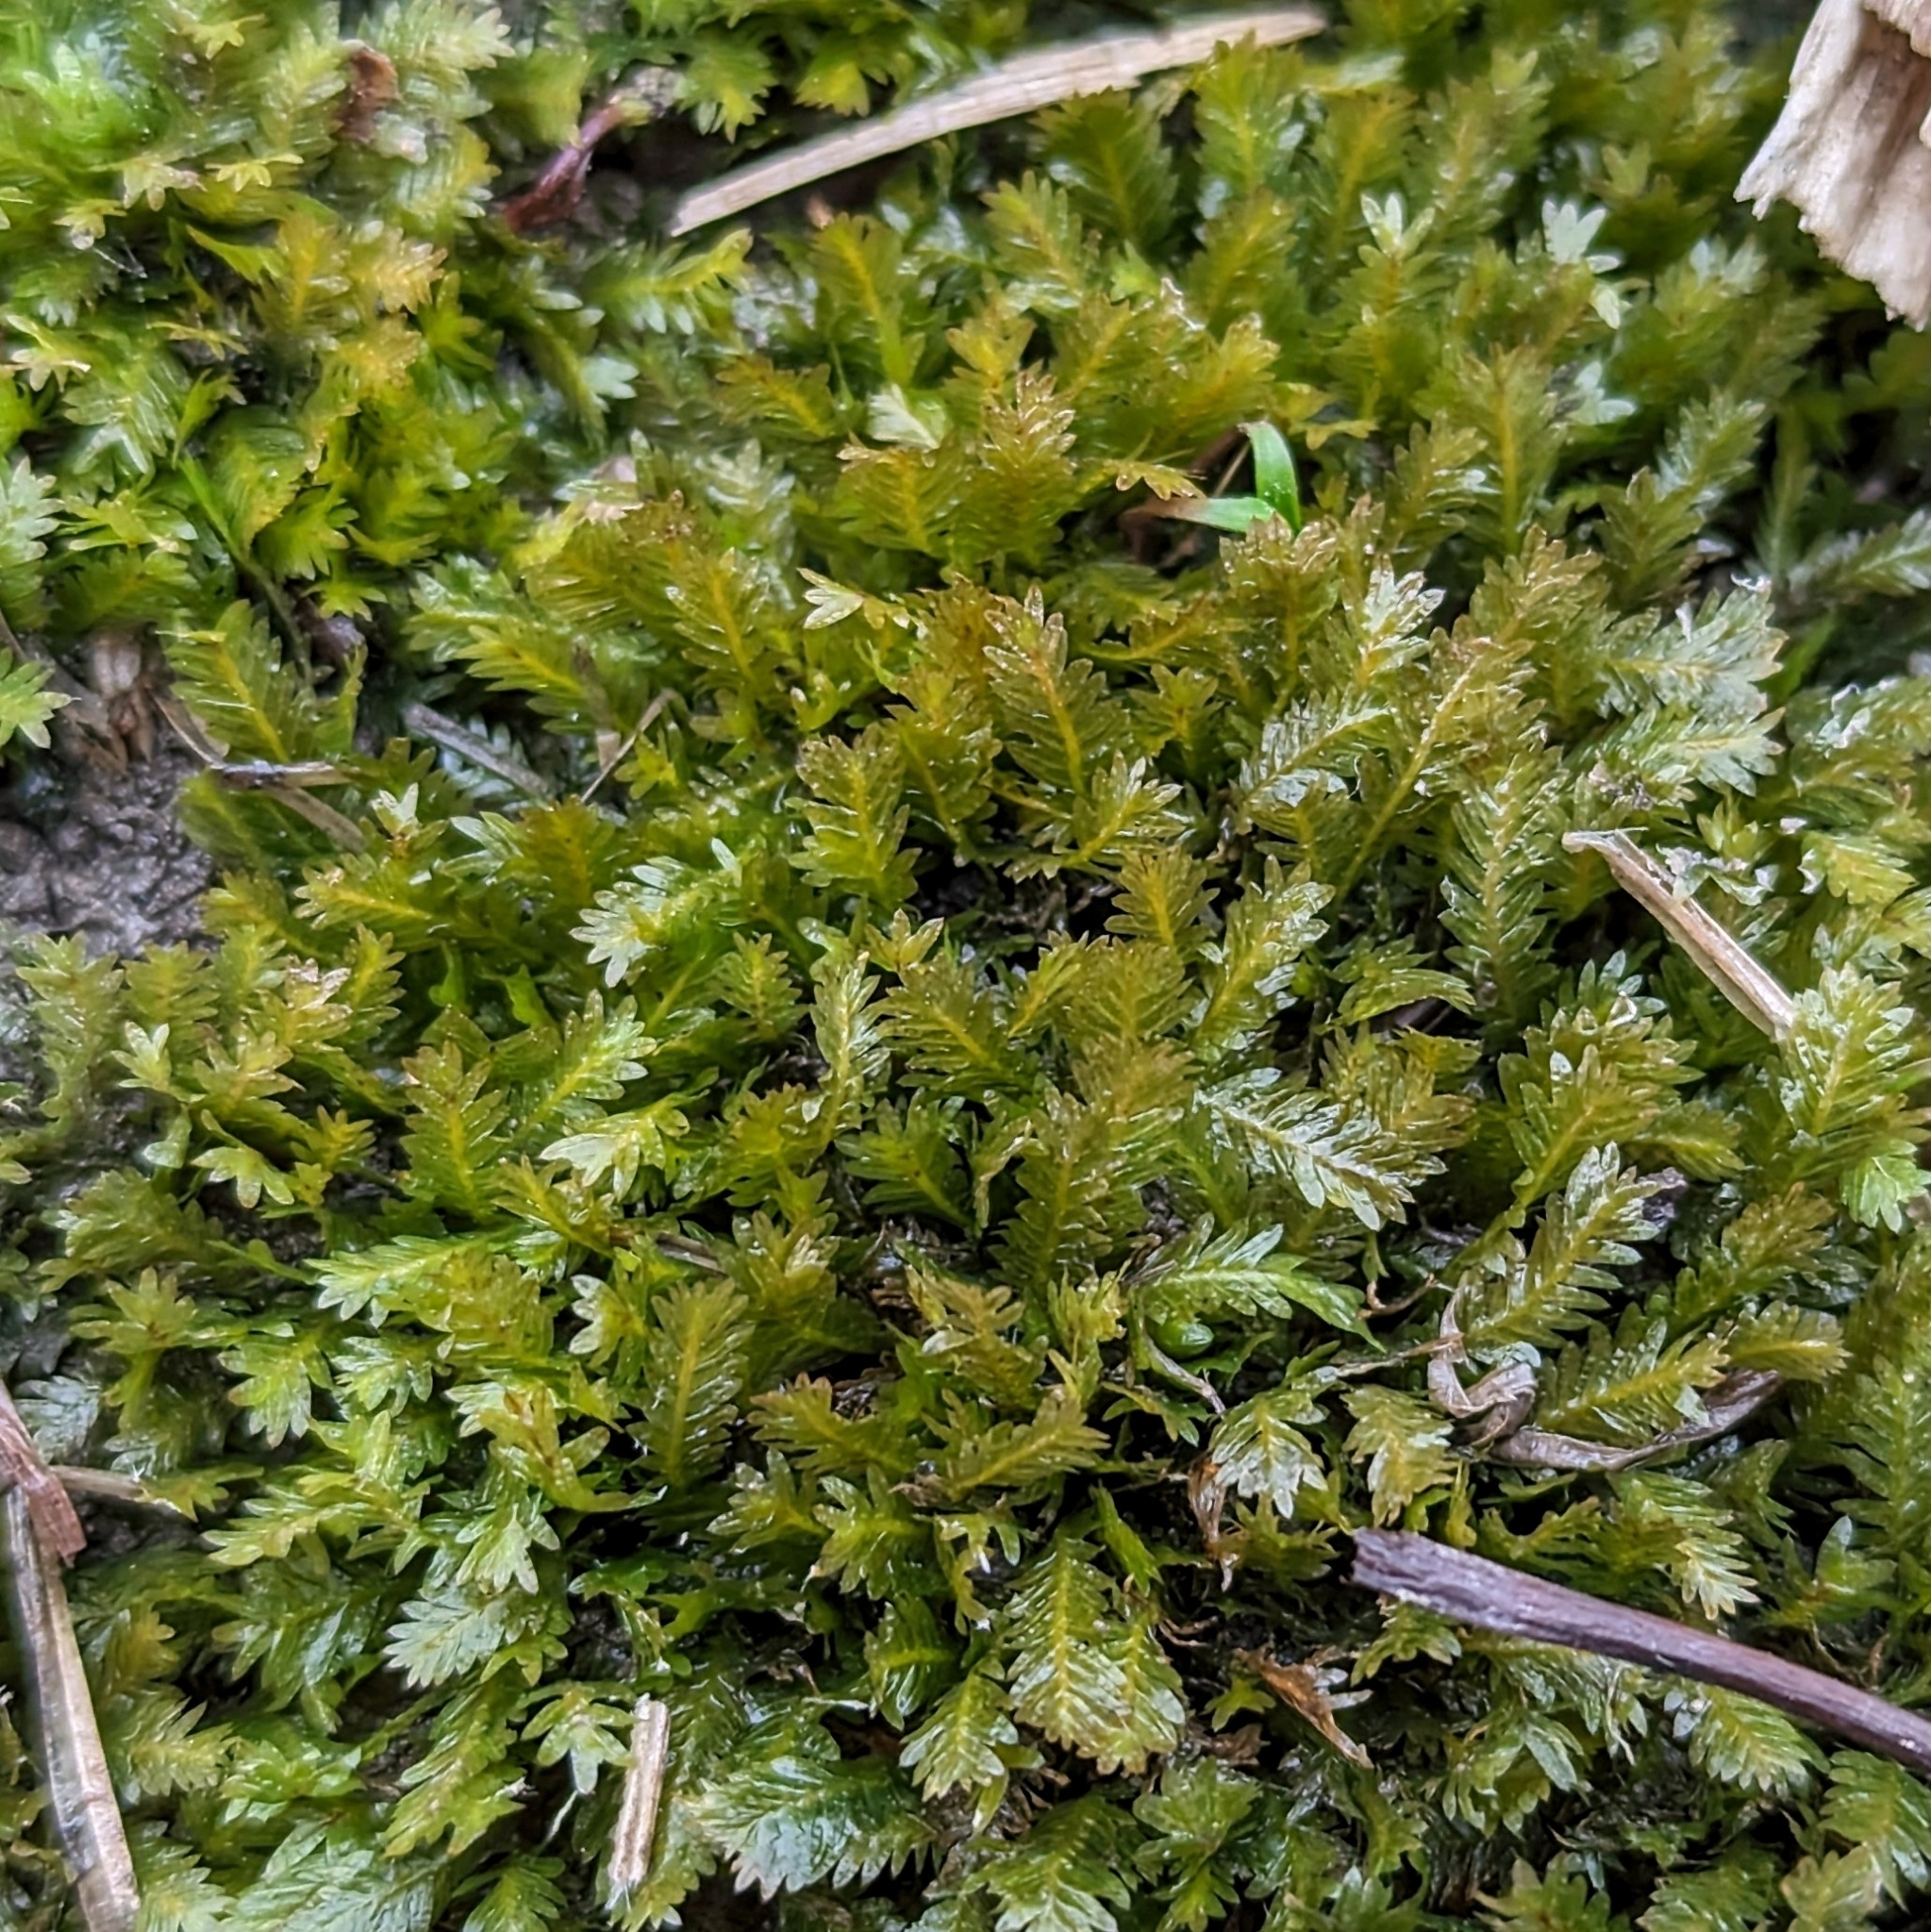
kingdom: Plantae
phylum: Bryophyta
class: Bryopsida
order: Dicranales
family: Fissidentaceae
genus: Fissidens
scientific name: Fissidens
